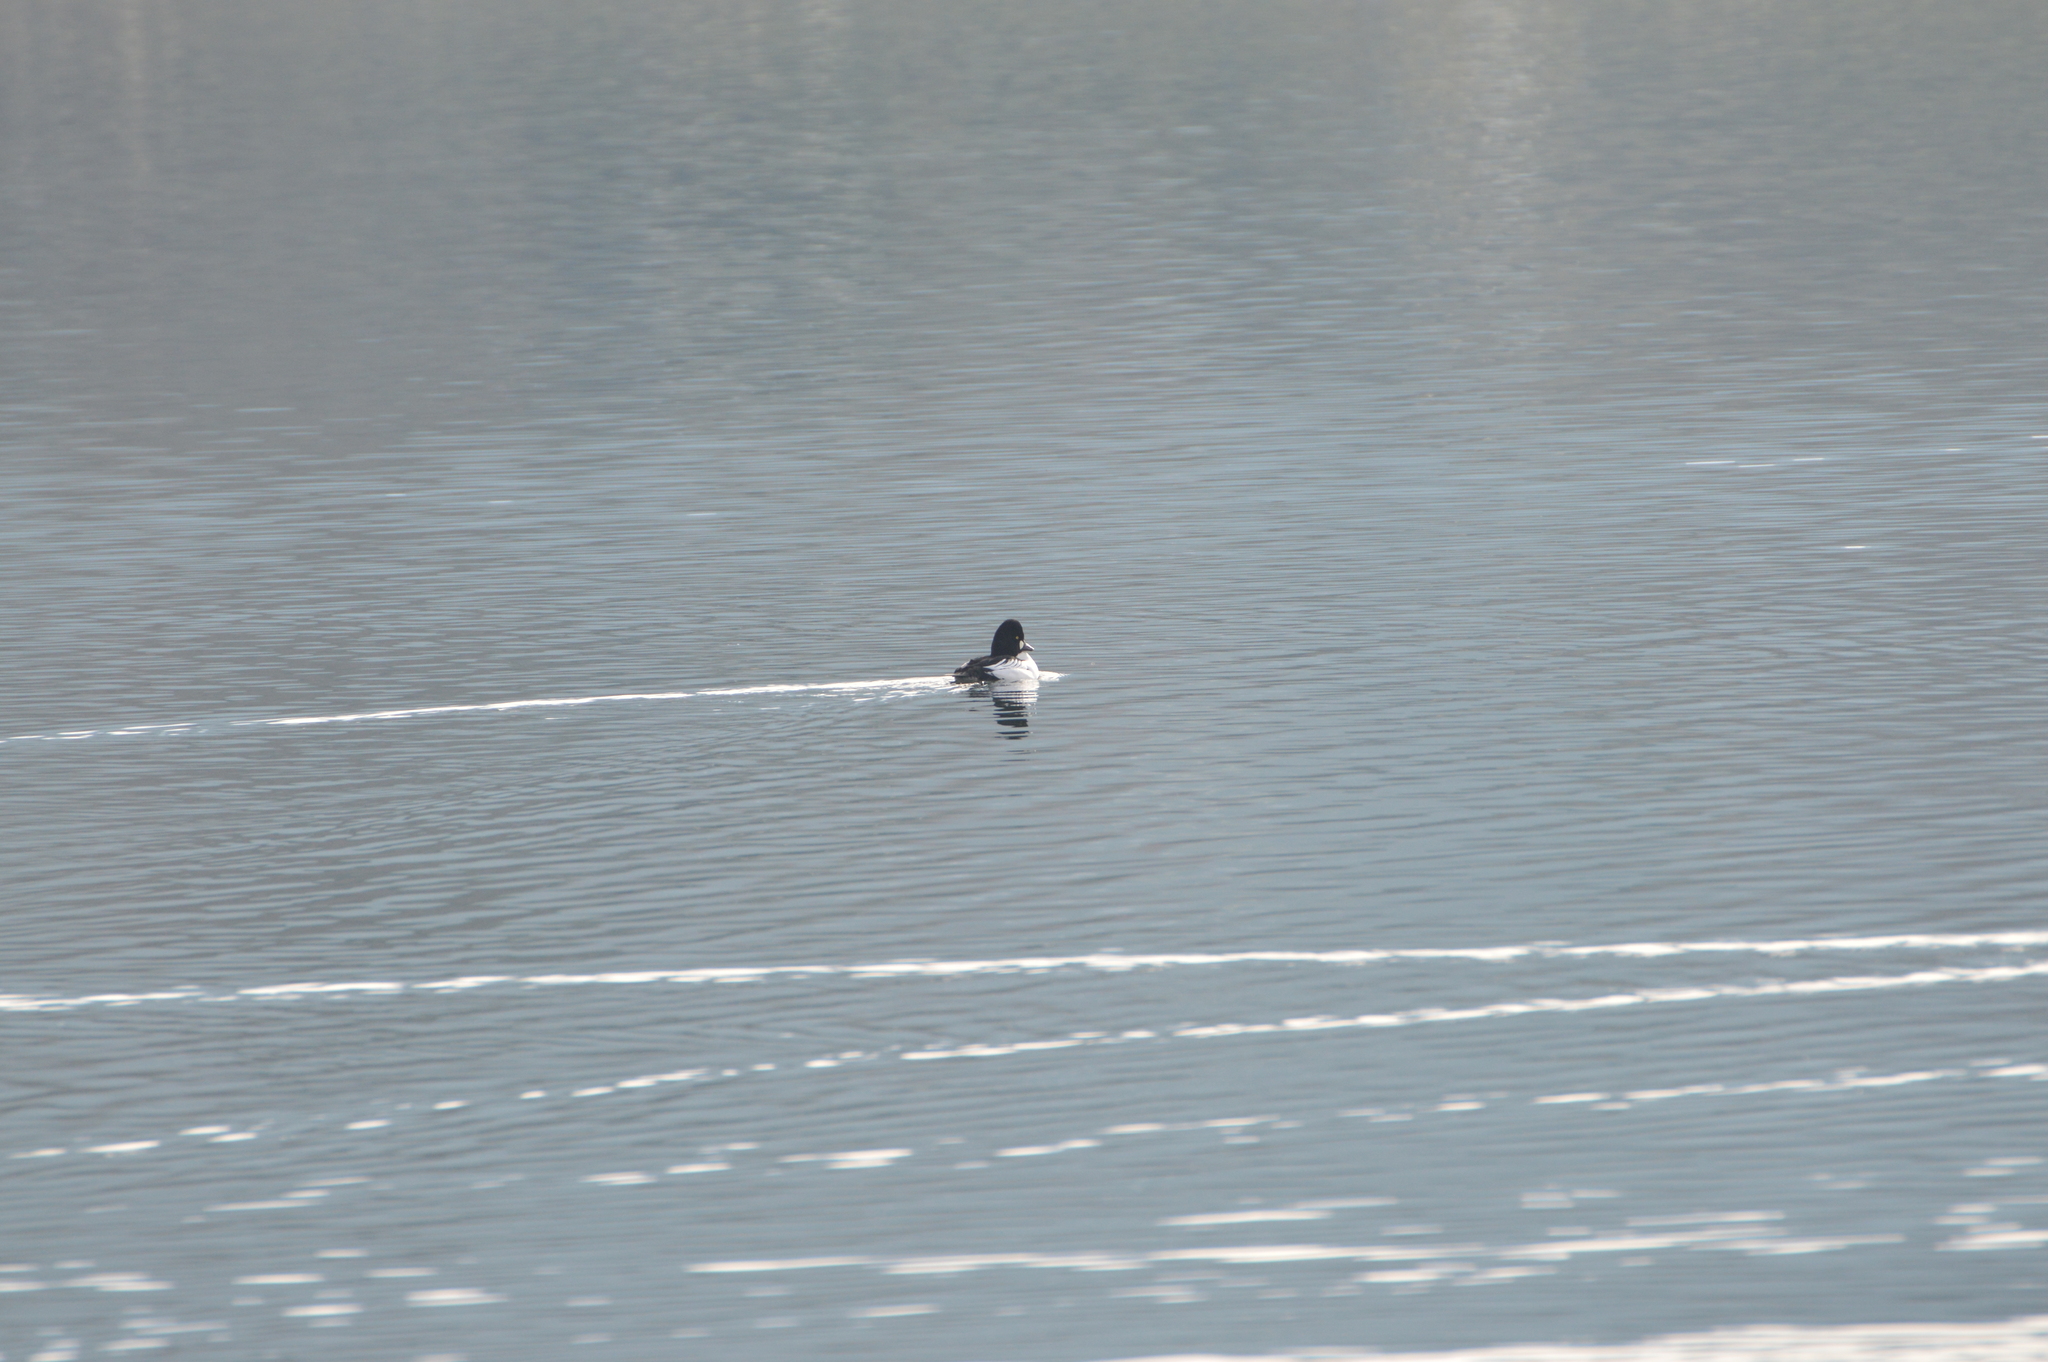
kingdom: Animalia
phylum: Chordata
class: Aves
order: Anseriformes
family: Anatidae
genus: Bucephala
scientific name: Bucephala clangula
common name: Common goldeneye
